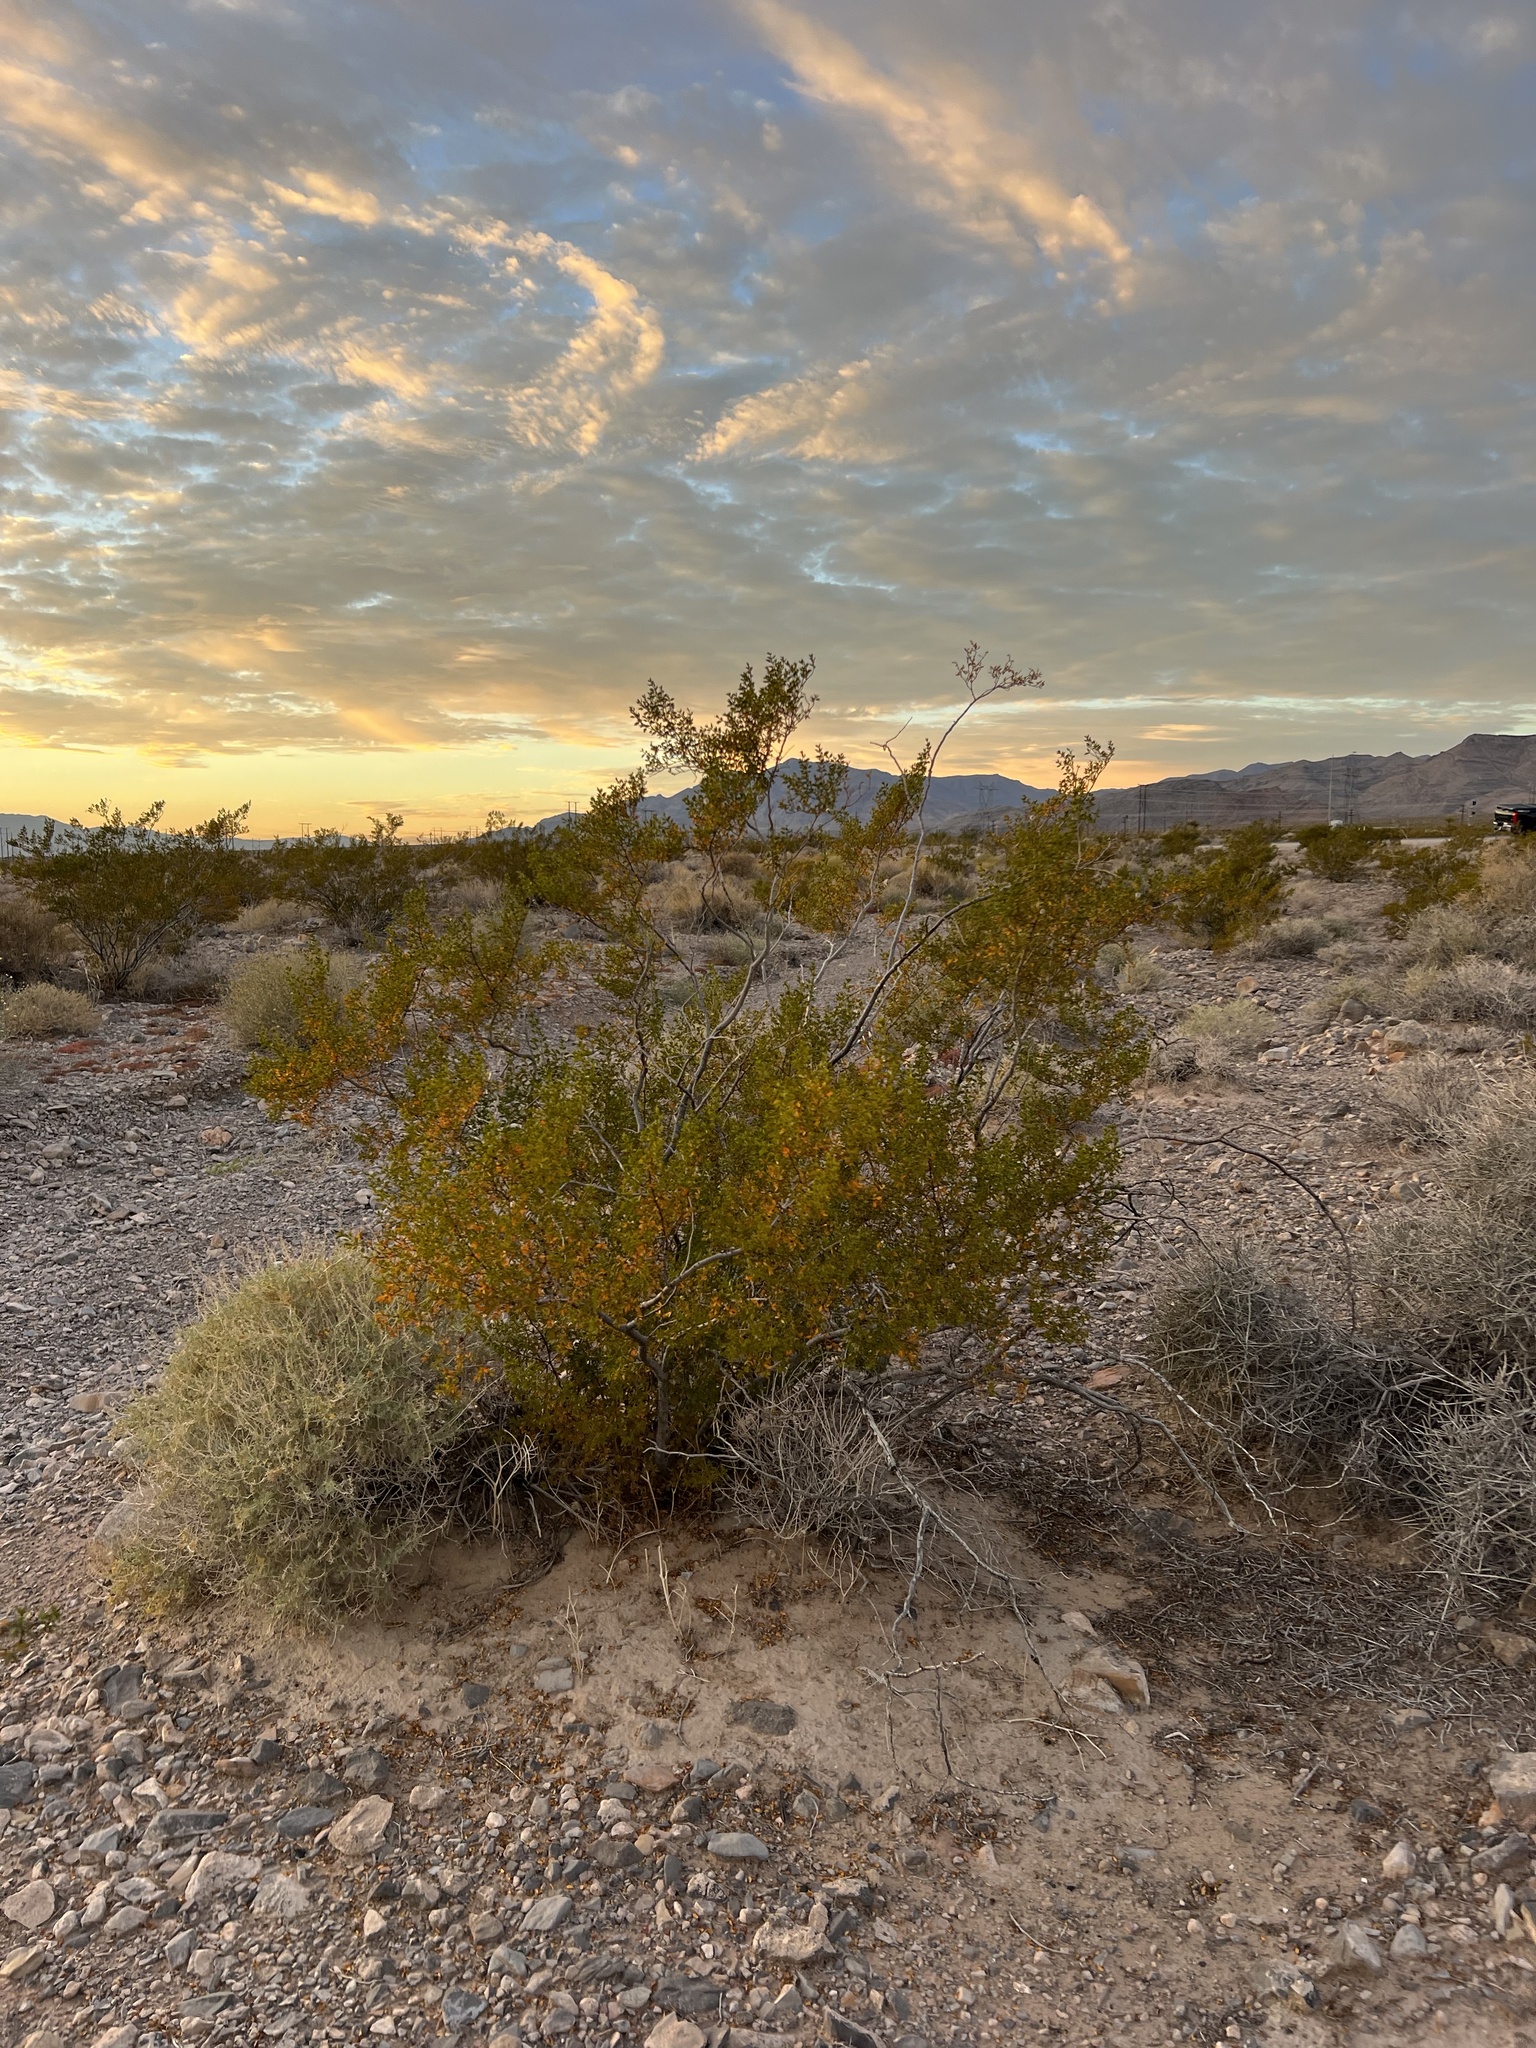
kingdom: Plantae
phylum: Tracheophyta
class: Magnoliopsida
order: Zygophyllales
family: Zygophyllaceae
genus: Larrea
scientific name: Larrea tridentata
